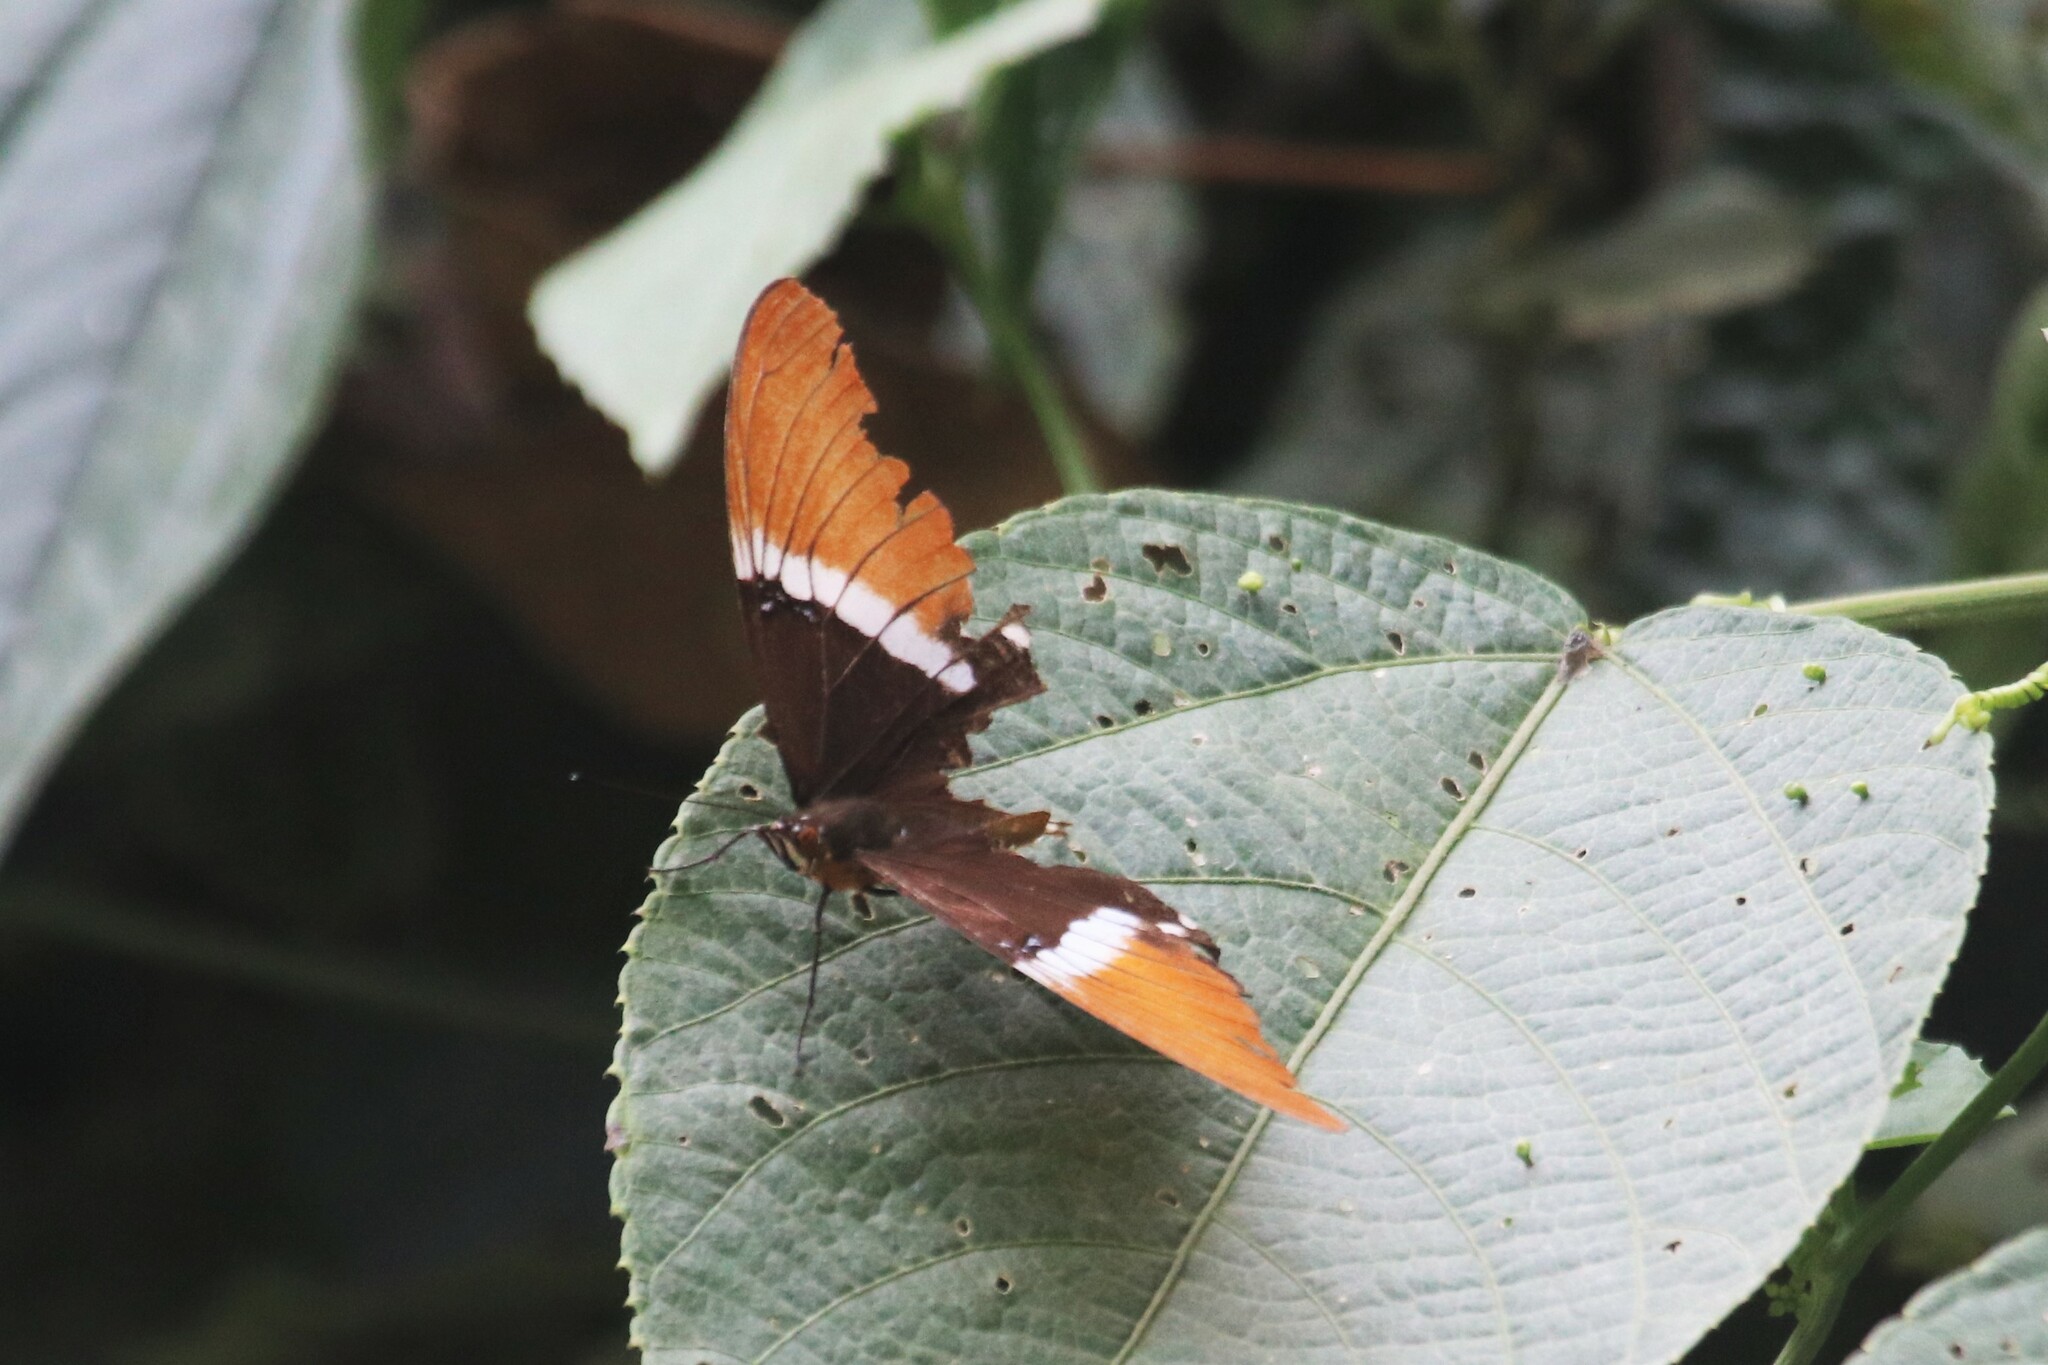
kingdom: Animalia
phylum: Arthropoda
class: Insecta
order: Lepidoptera
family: Nymphalidae
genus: Siproeta
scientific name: Siproeta epaphus
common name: Rusty-tipped page
